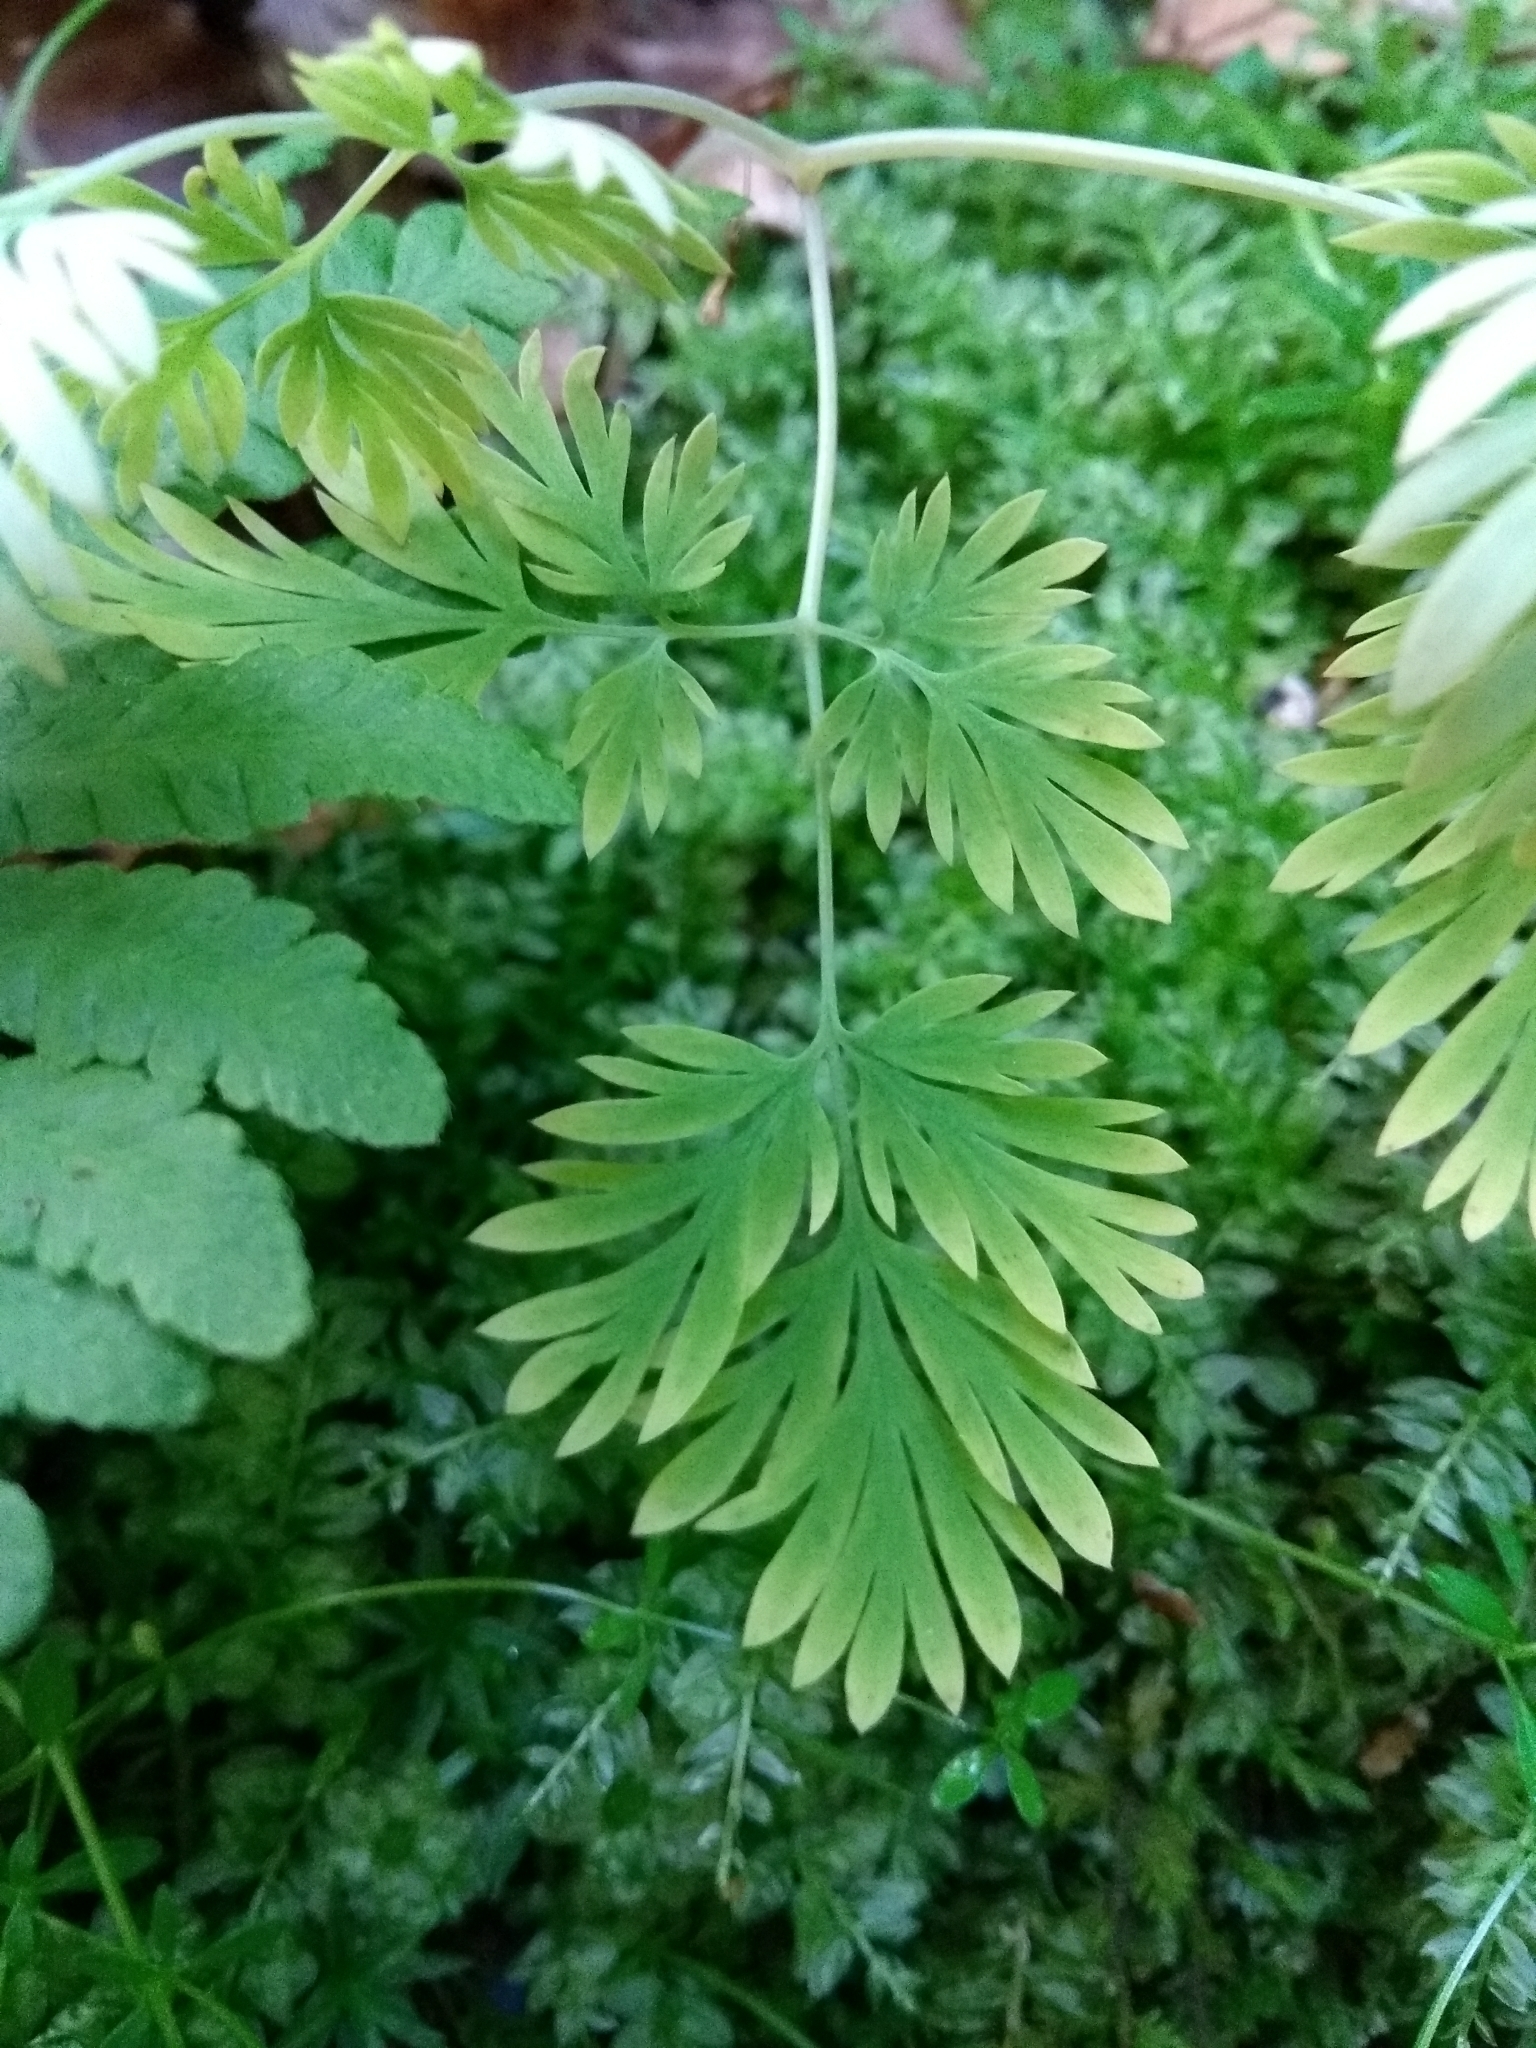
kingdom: Plantae
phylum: Tracheophyta
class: Magnoliopsida
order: Ranunculales
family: Papaveraceae
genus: Dicentra
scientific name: Dicentra cucullaria
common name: Dutchman's breeches
